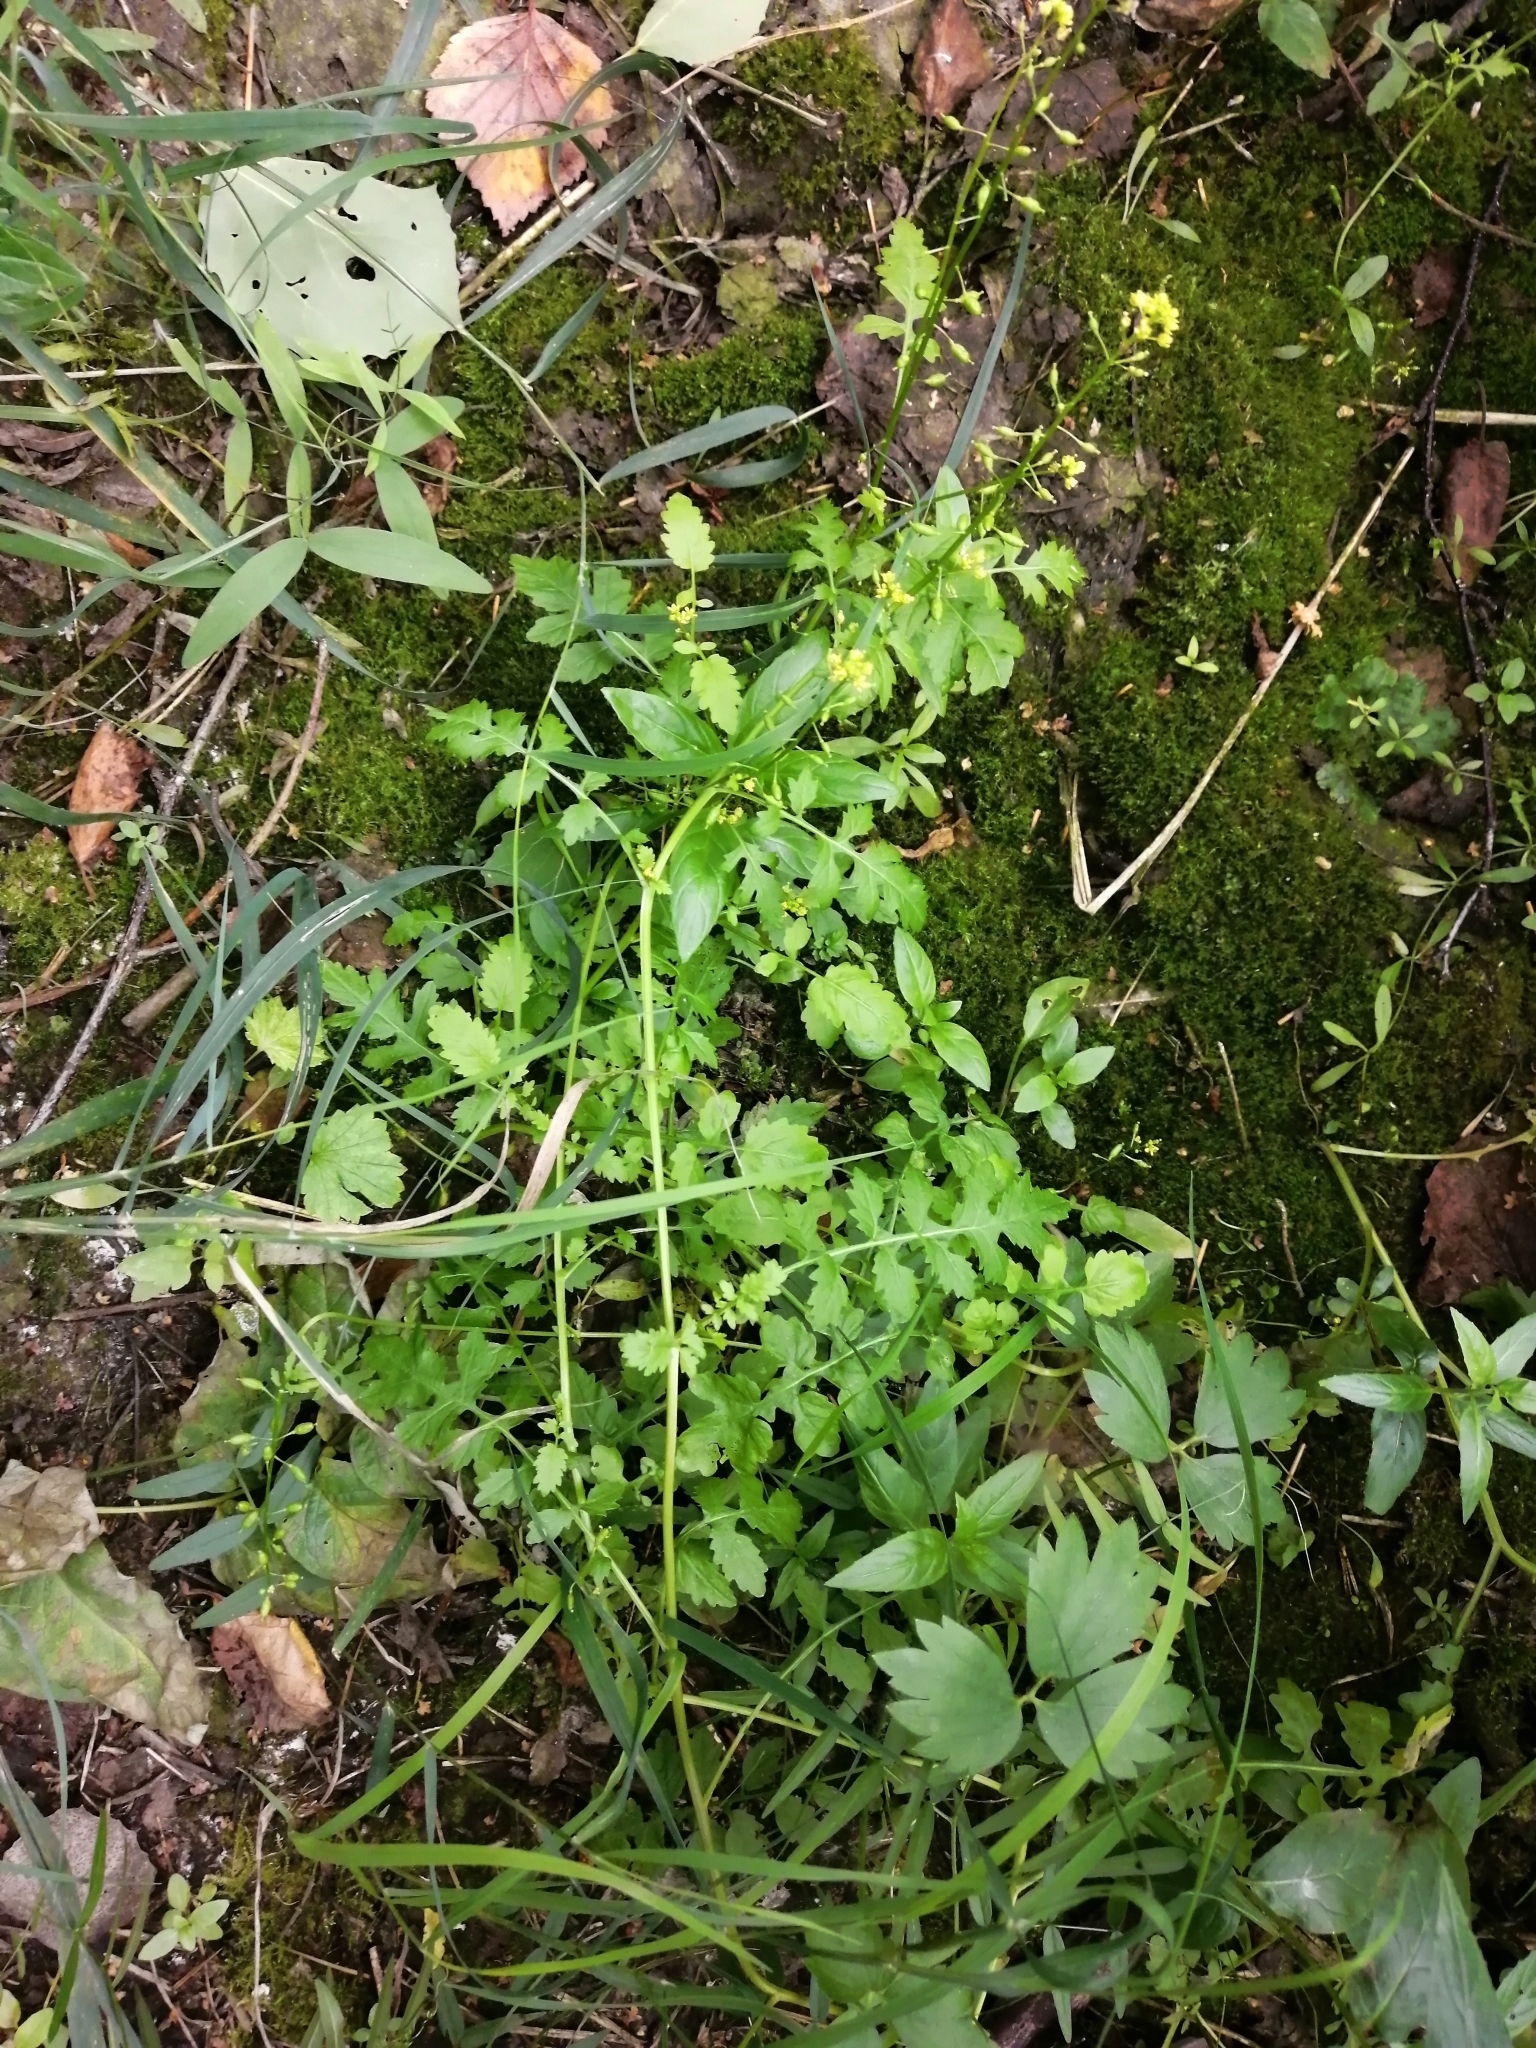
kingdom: Plantae
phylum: Tracheophyta
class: Magnoliopsida
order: Brassicales
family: Brassicaceae
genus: Rorippa
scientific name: Rorippa palustris
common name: Marsh yellow-cress
